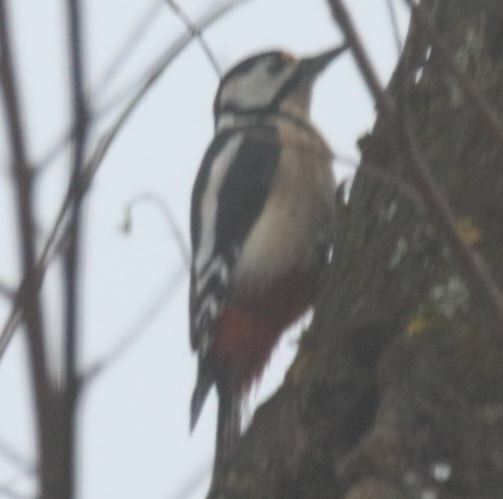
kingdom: Animalia
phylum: Chordata
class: Aves
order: Piciformes
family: Picidae
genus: Dendrocopos
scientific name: Dendrocopos major
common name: Great spotted woodpecker
